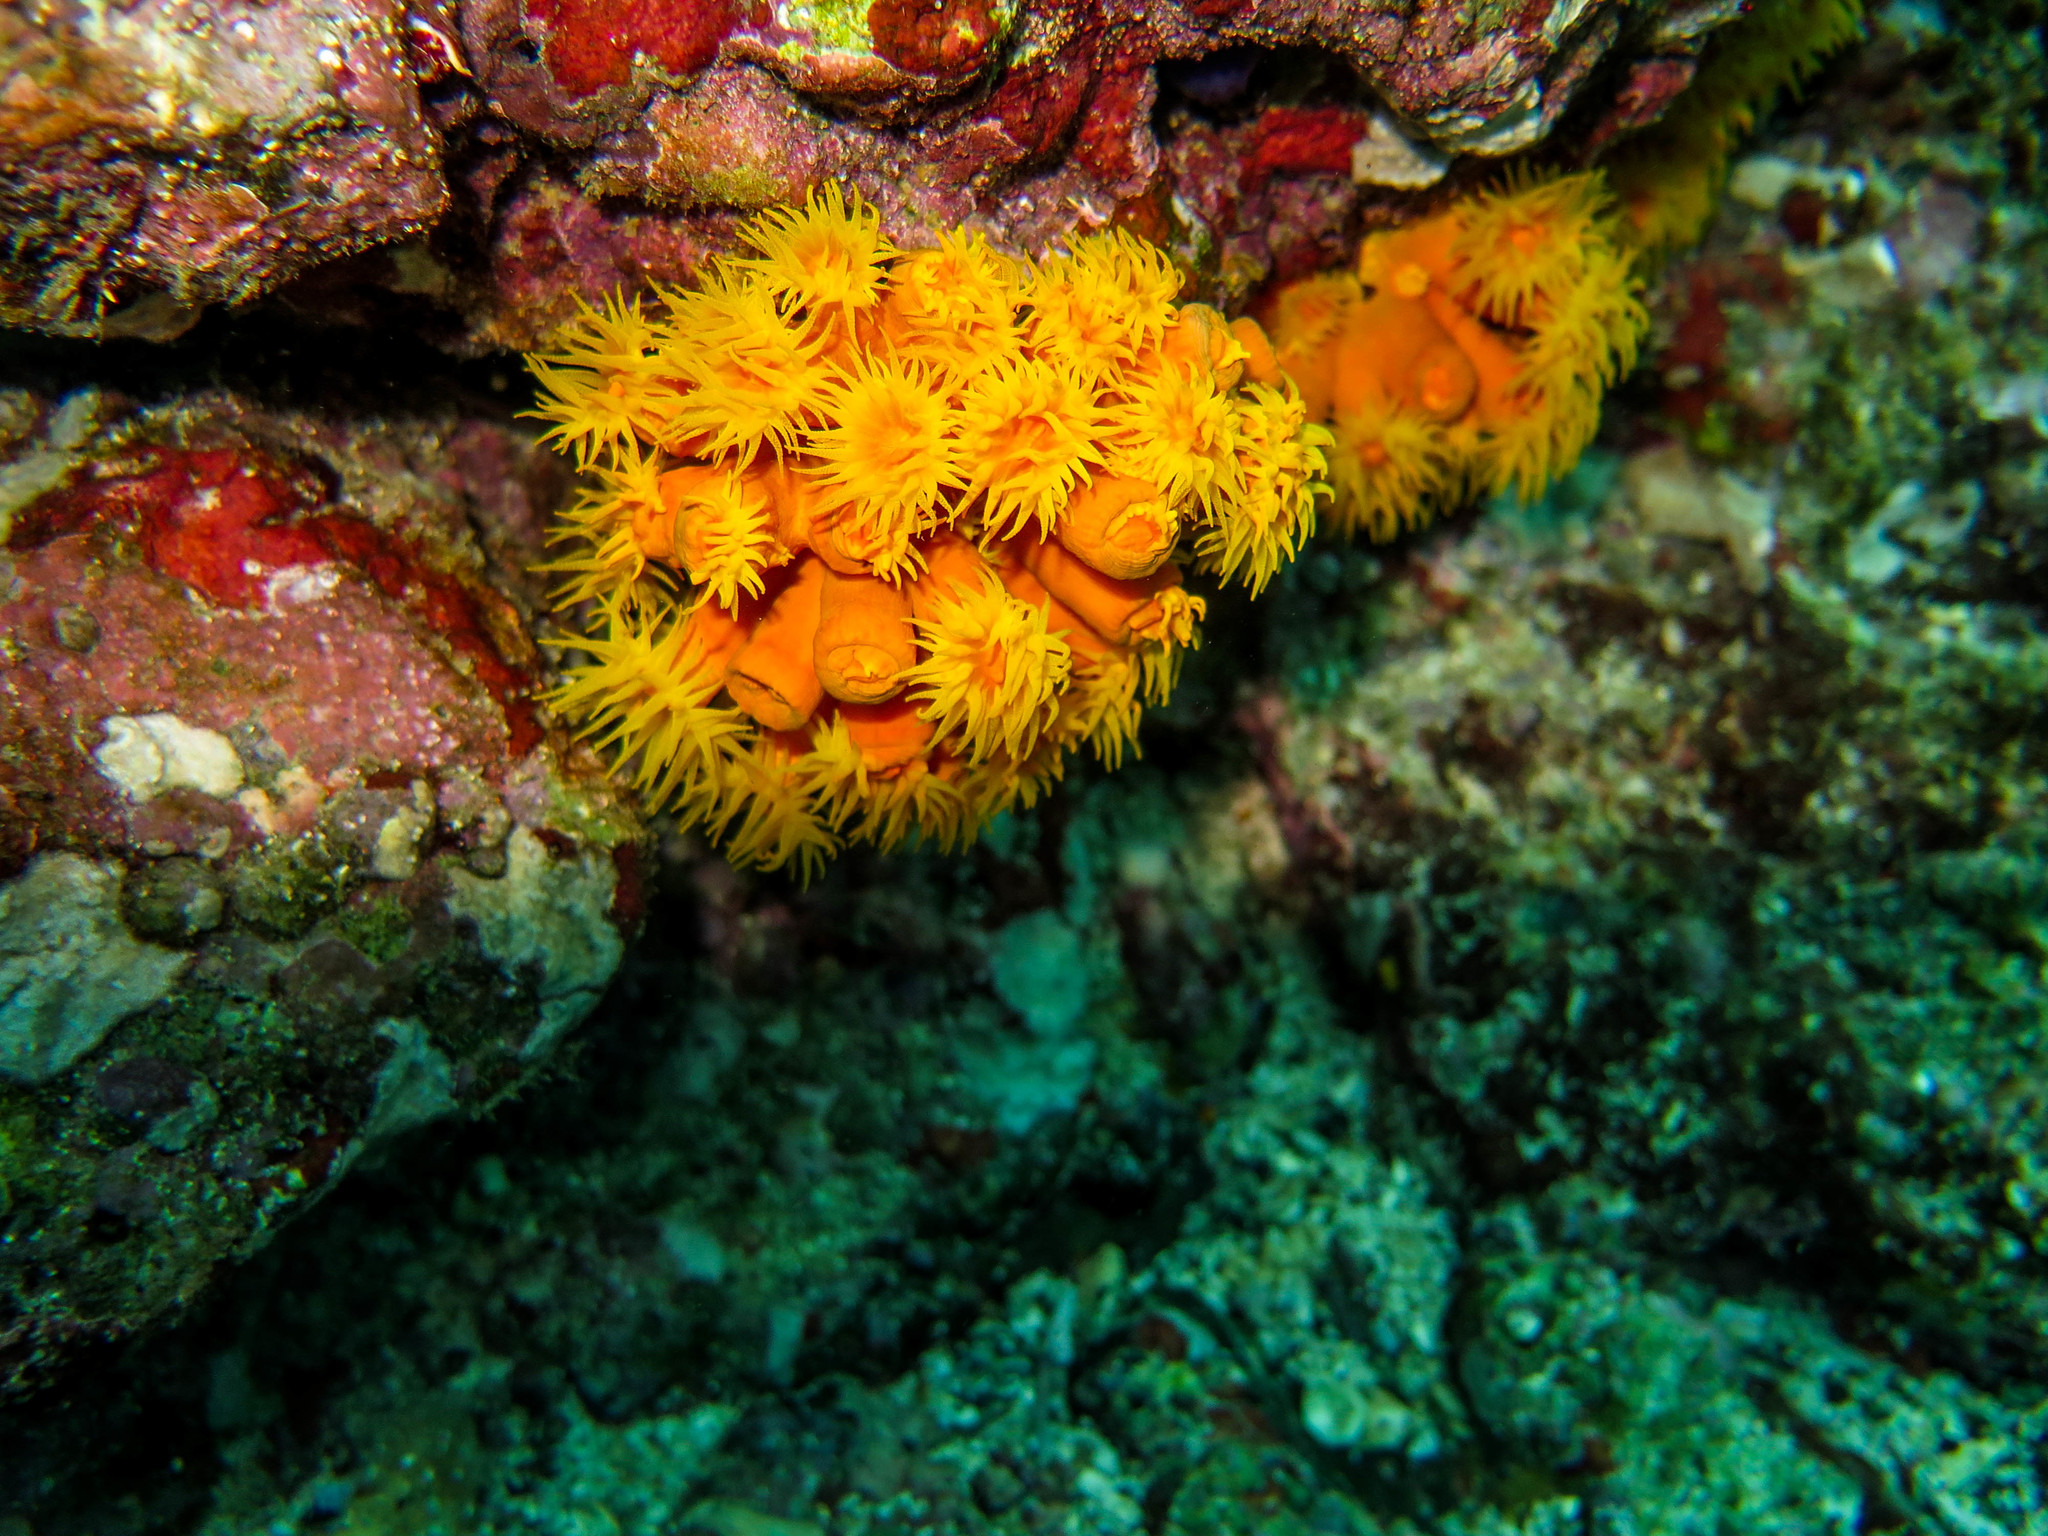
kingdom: Animalia
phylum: Cnidaria
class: Anthozoa
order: Scleractinia
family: Dendrophylliidae
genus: Tubastraea
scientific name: Tubastraea coccinea
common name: Orange cup coral
